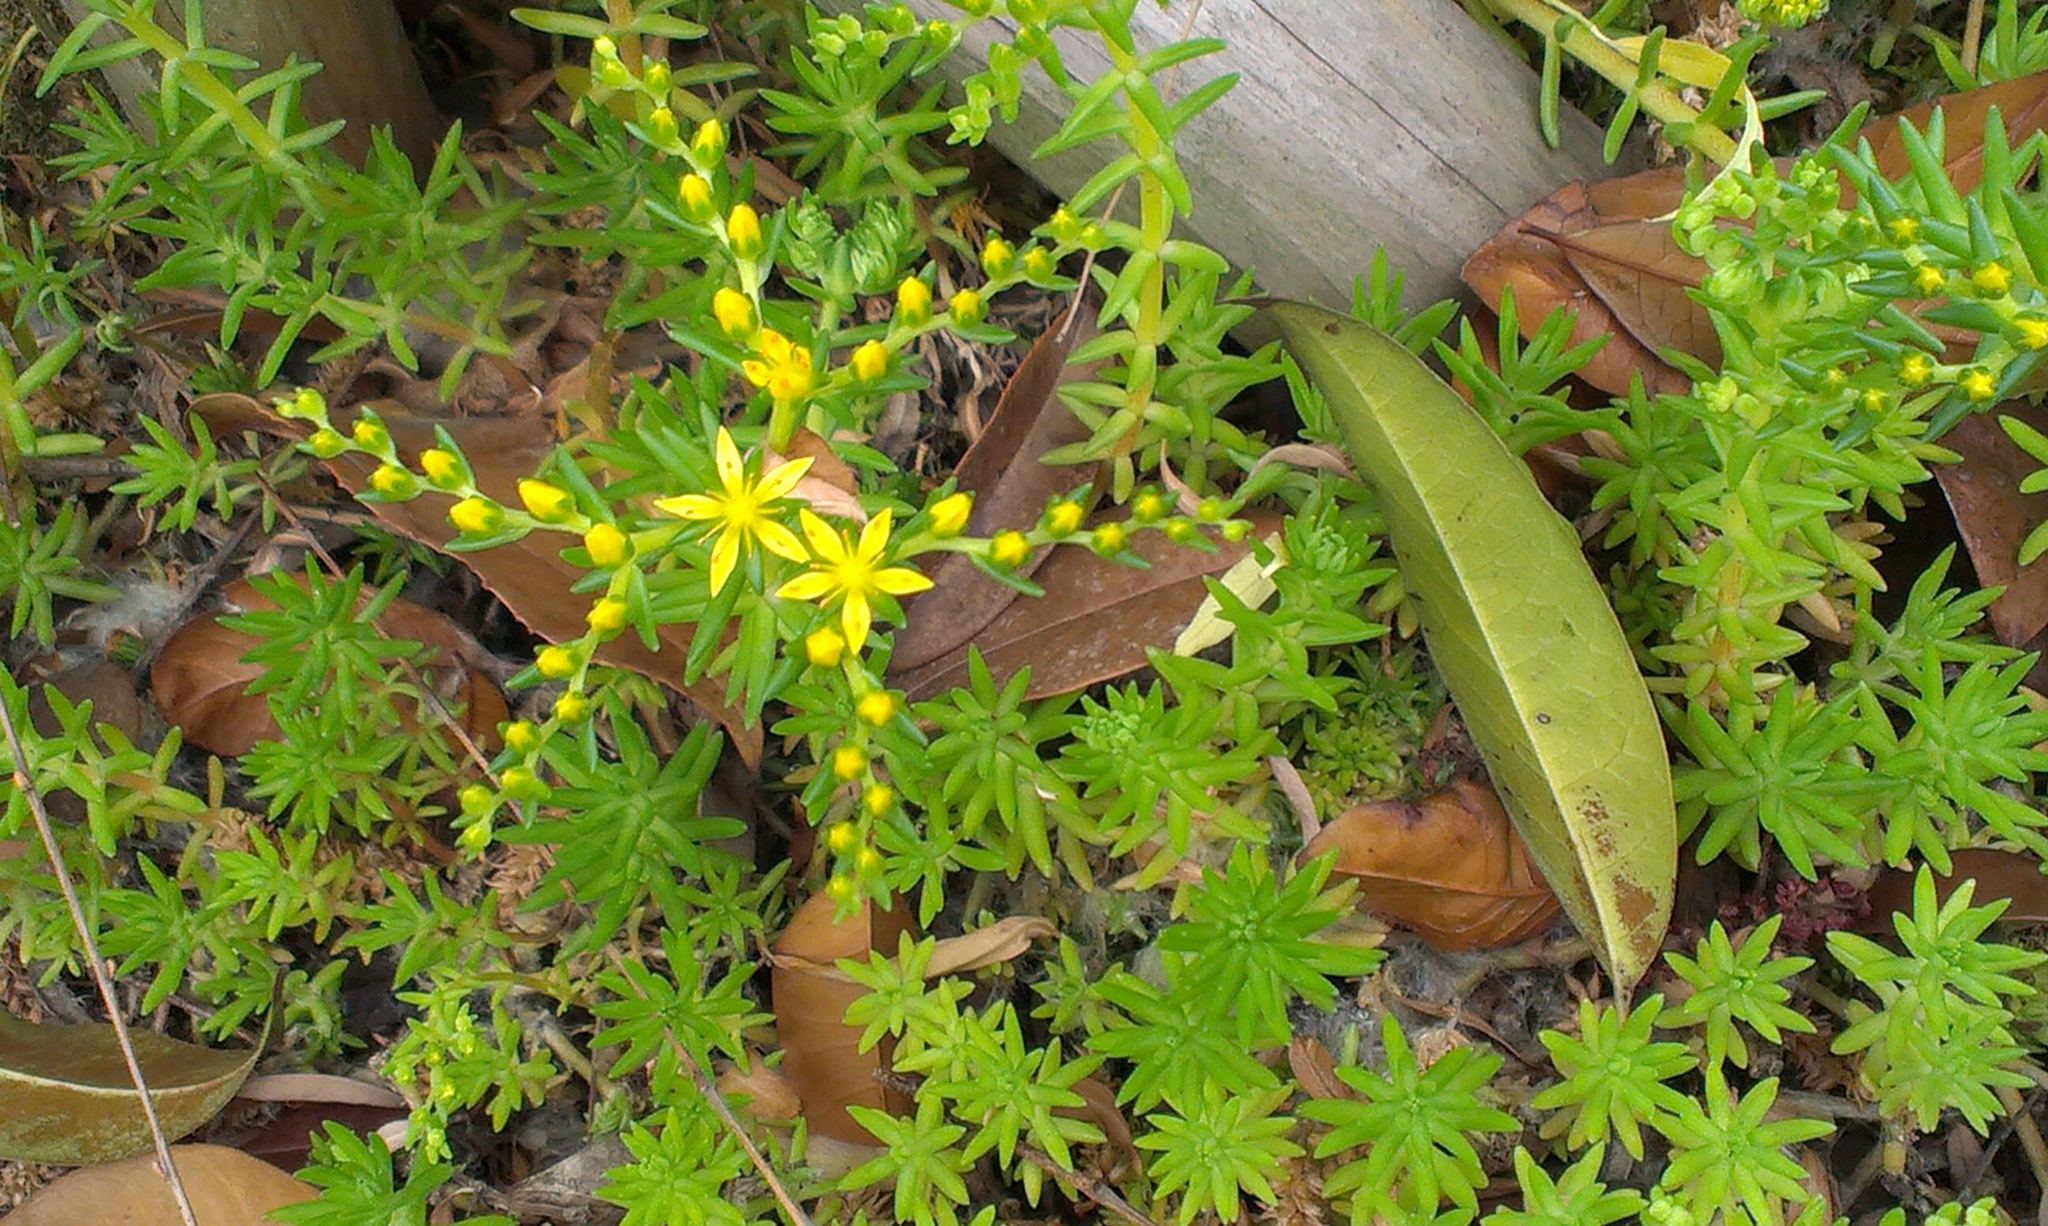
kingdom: Plantae
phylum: Tracheophyta
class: Magnoliopsida
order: Saxifragales
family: Crassulaceae
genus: Sedum
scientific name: Sedum mexicanum
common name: Mexican stonecrop
